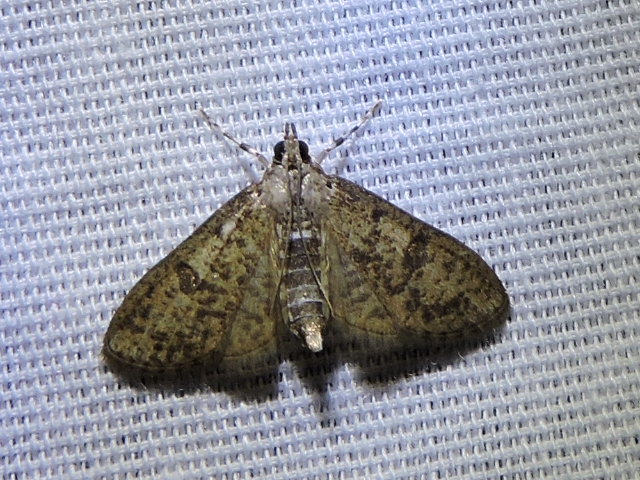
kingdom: Animalia
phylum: Arthropoda
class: Insecta
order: Lepidoptera
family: Crambidae
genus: Palpita
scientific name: Palpita freemanalis
